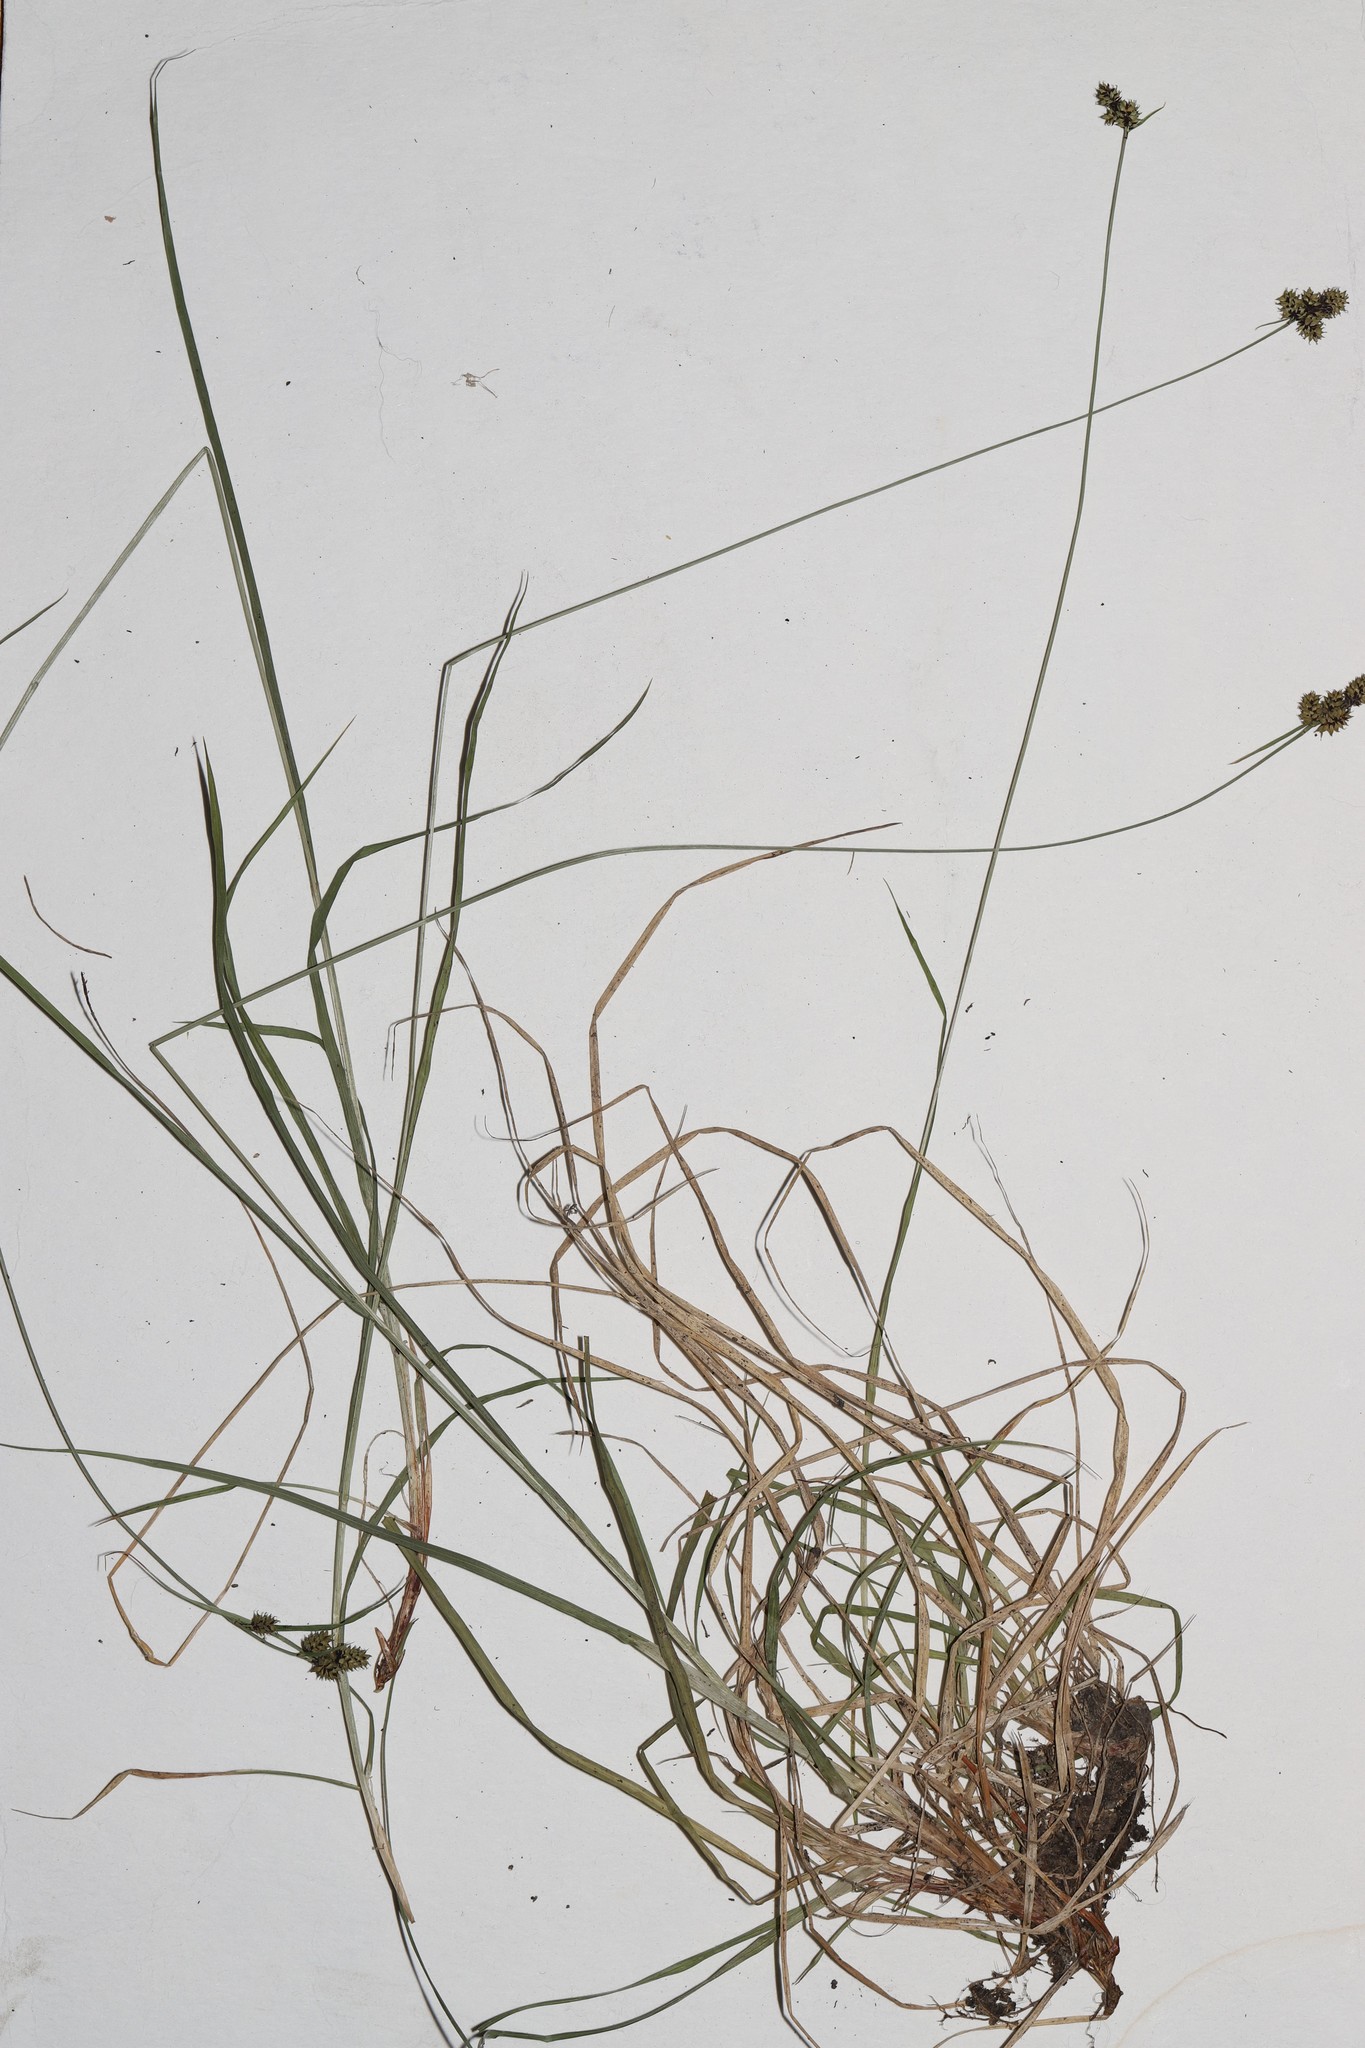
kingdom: Plantae
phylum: Tracheophyta
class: Liliopsida
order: Poales
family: Cyperaceae
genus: Carex
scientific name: Carex media
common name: Alpine sedge
